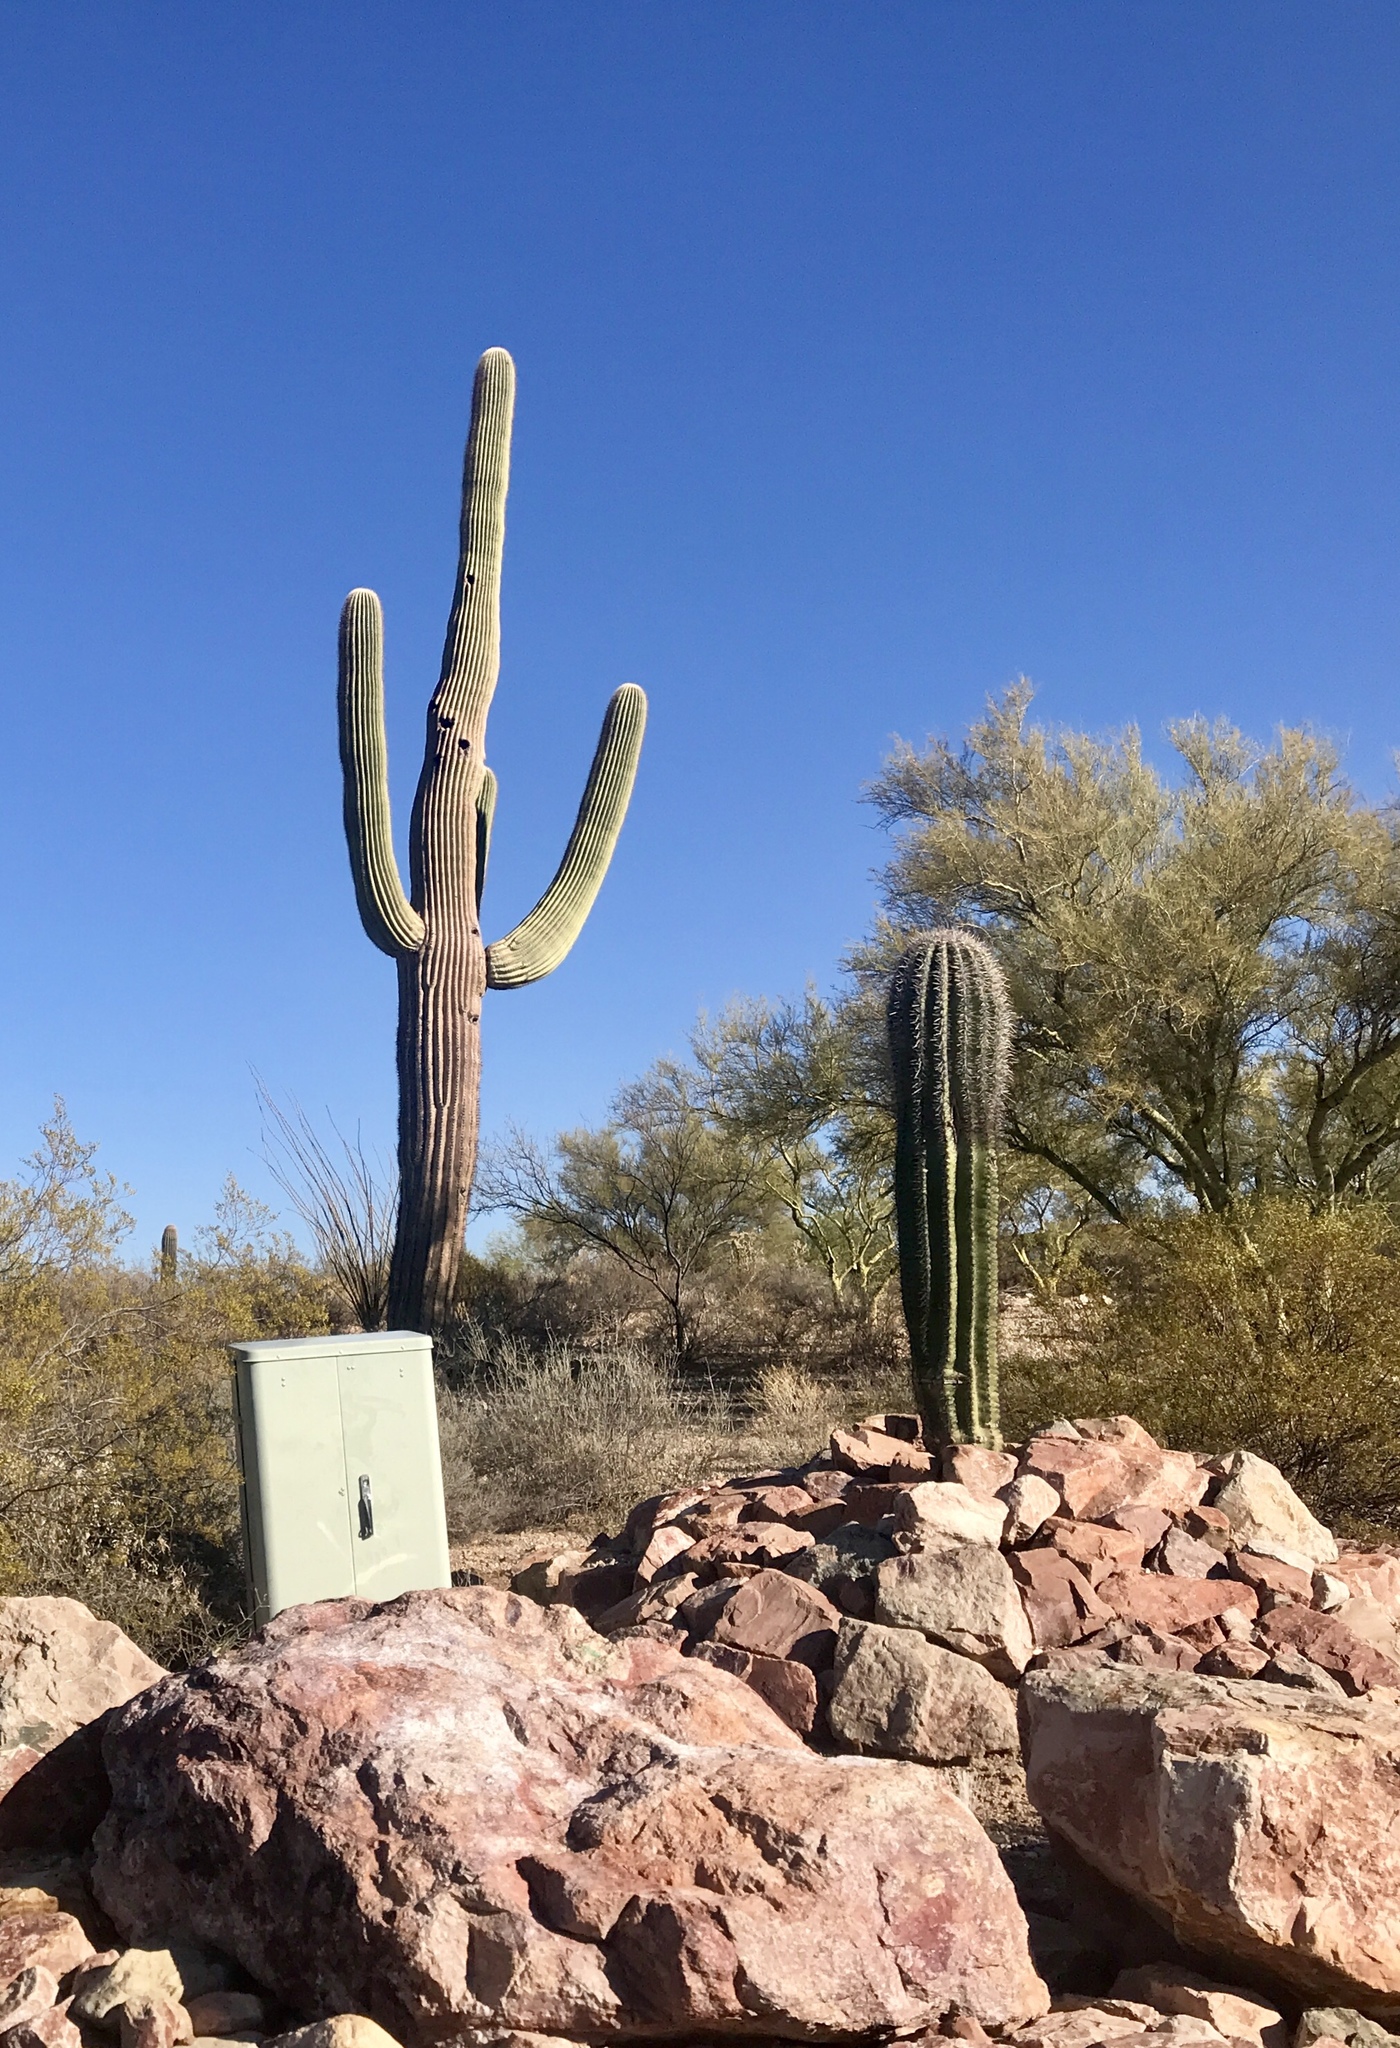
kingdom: Plantae
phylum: Tracheophyta
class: Magnoliopsida
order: Caryophyllales
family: Cactaceae
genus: Carnegiea
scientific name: Carnegiea gigantea
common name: Saguaro
